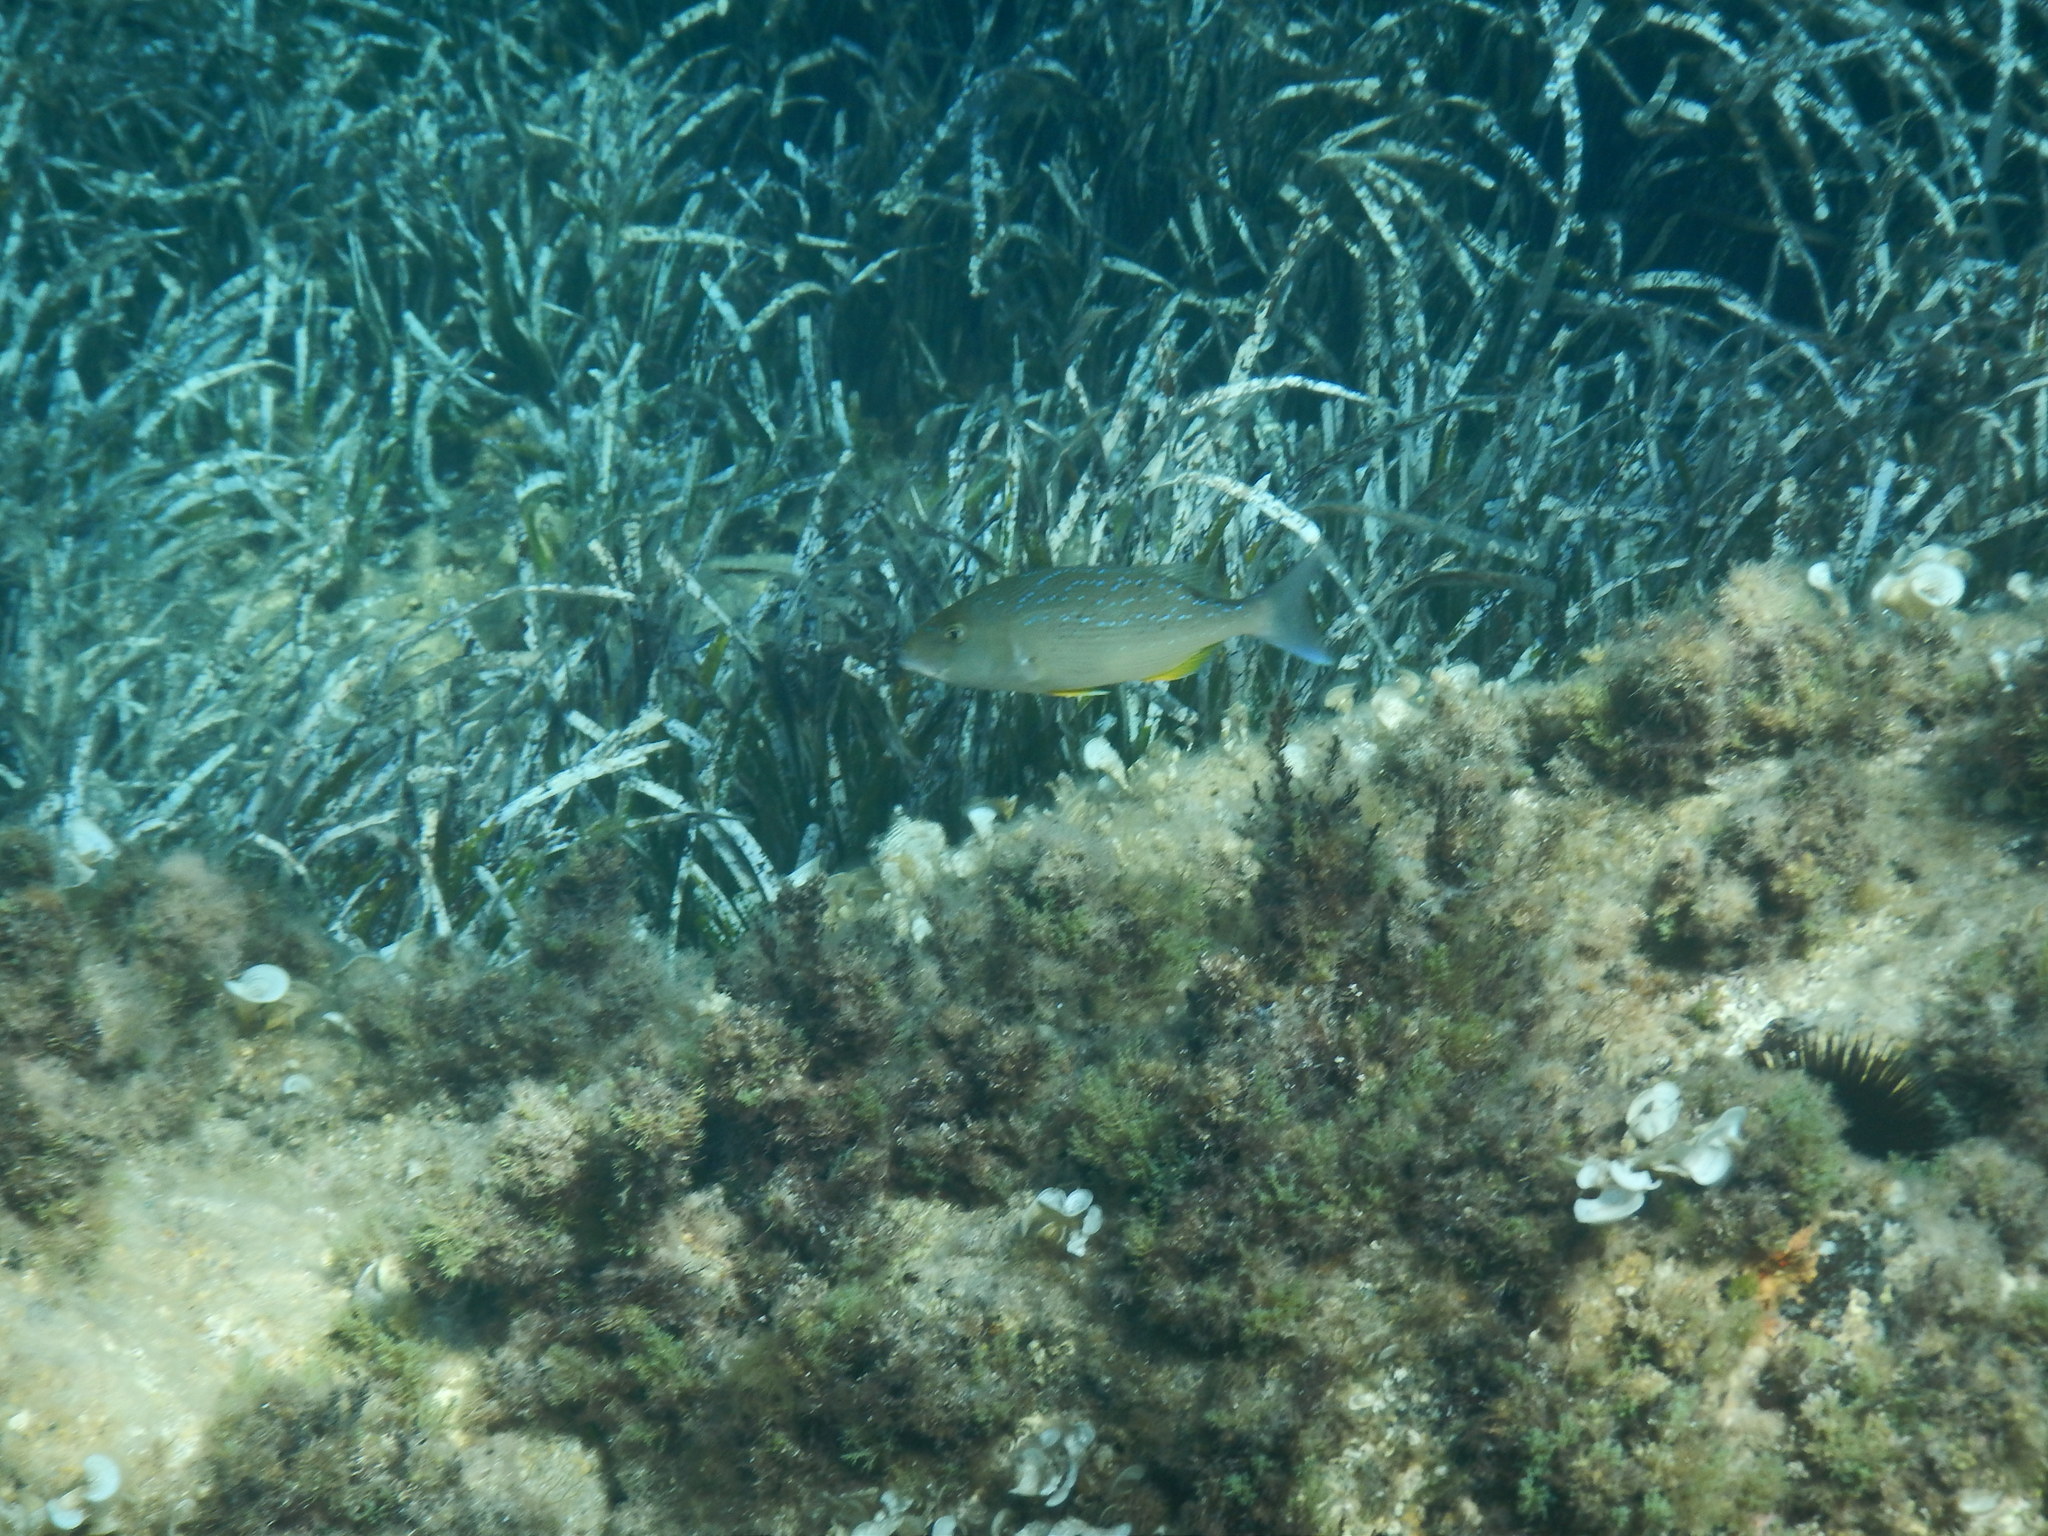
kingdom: Animalia
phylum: Chordata
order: Perciformes
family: Sparidae
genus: Dentex
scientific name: Dentex dentex
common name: Dentex
